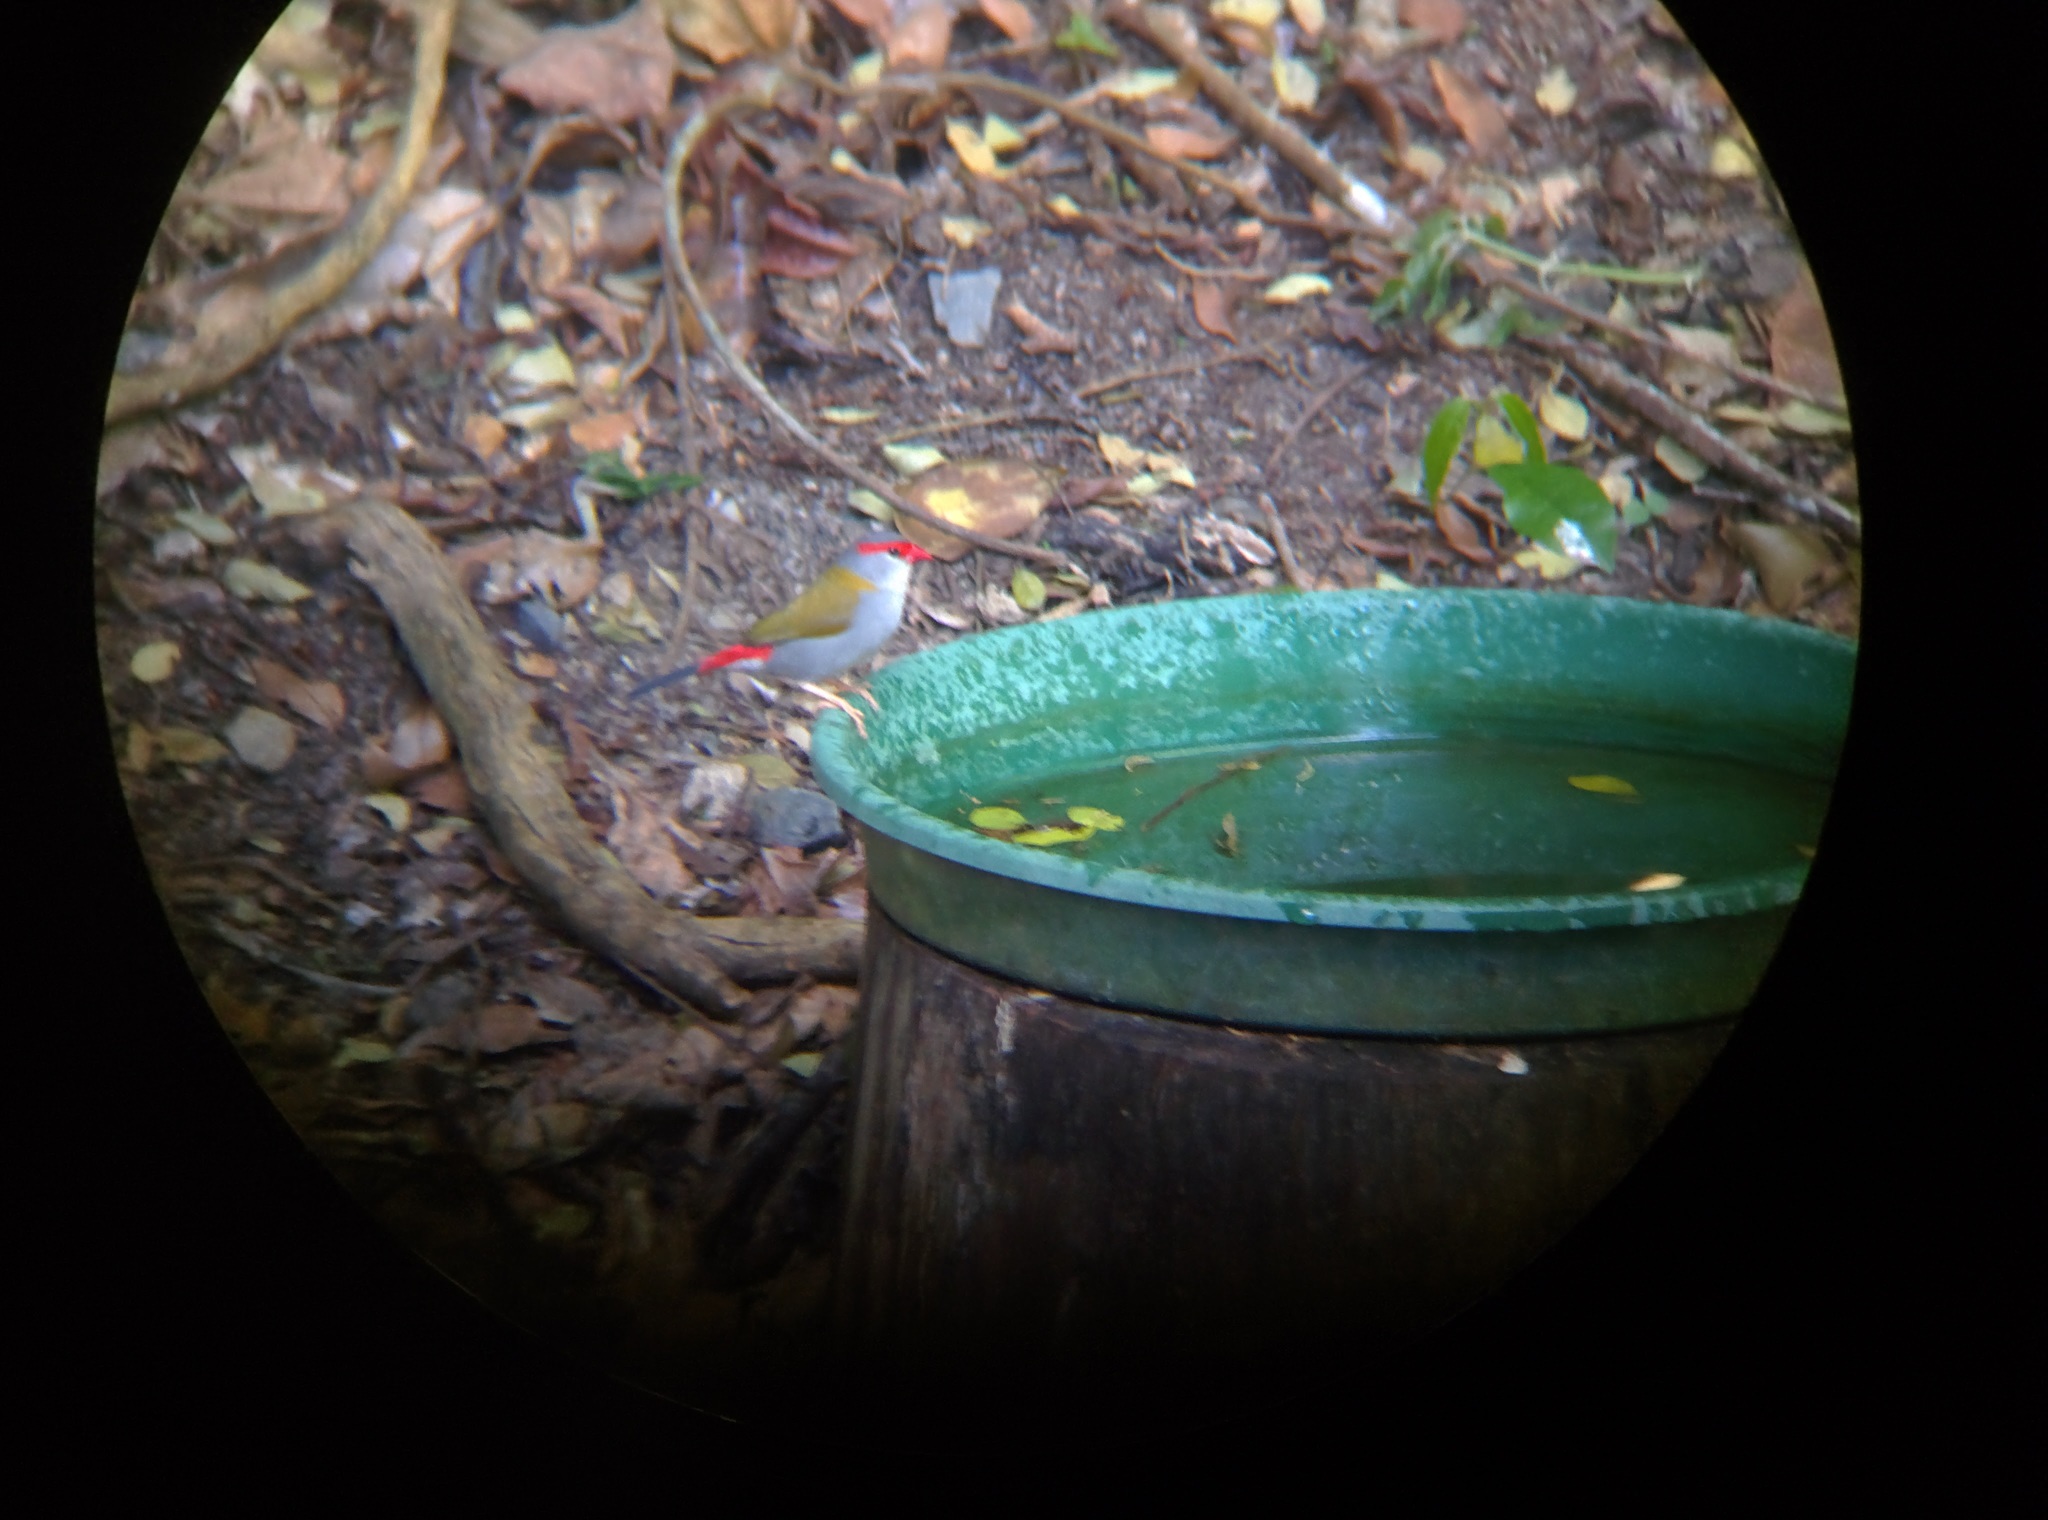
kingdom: Animalia
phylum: Chordata
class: Aves
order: Passeriformes
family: Estrildidae
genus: Neochmia
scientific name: Neochmia temporalis
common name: Red-browed finch
